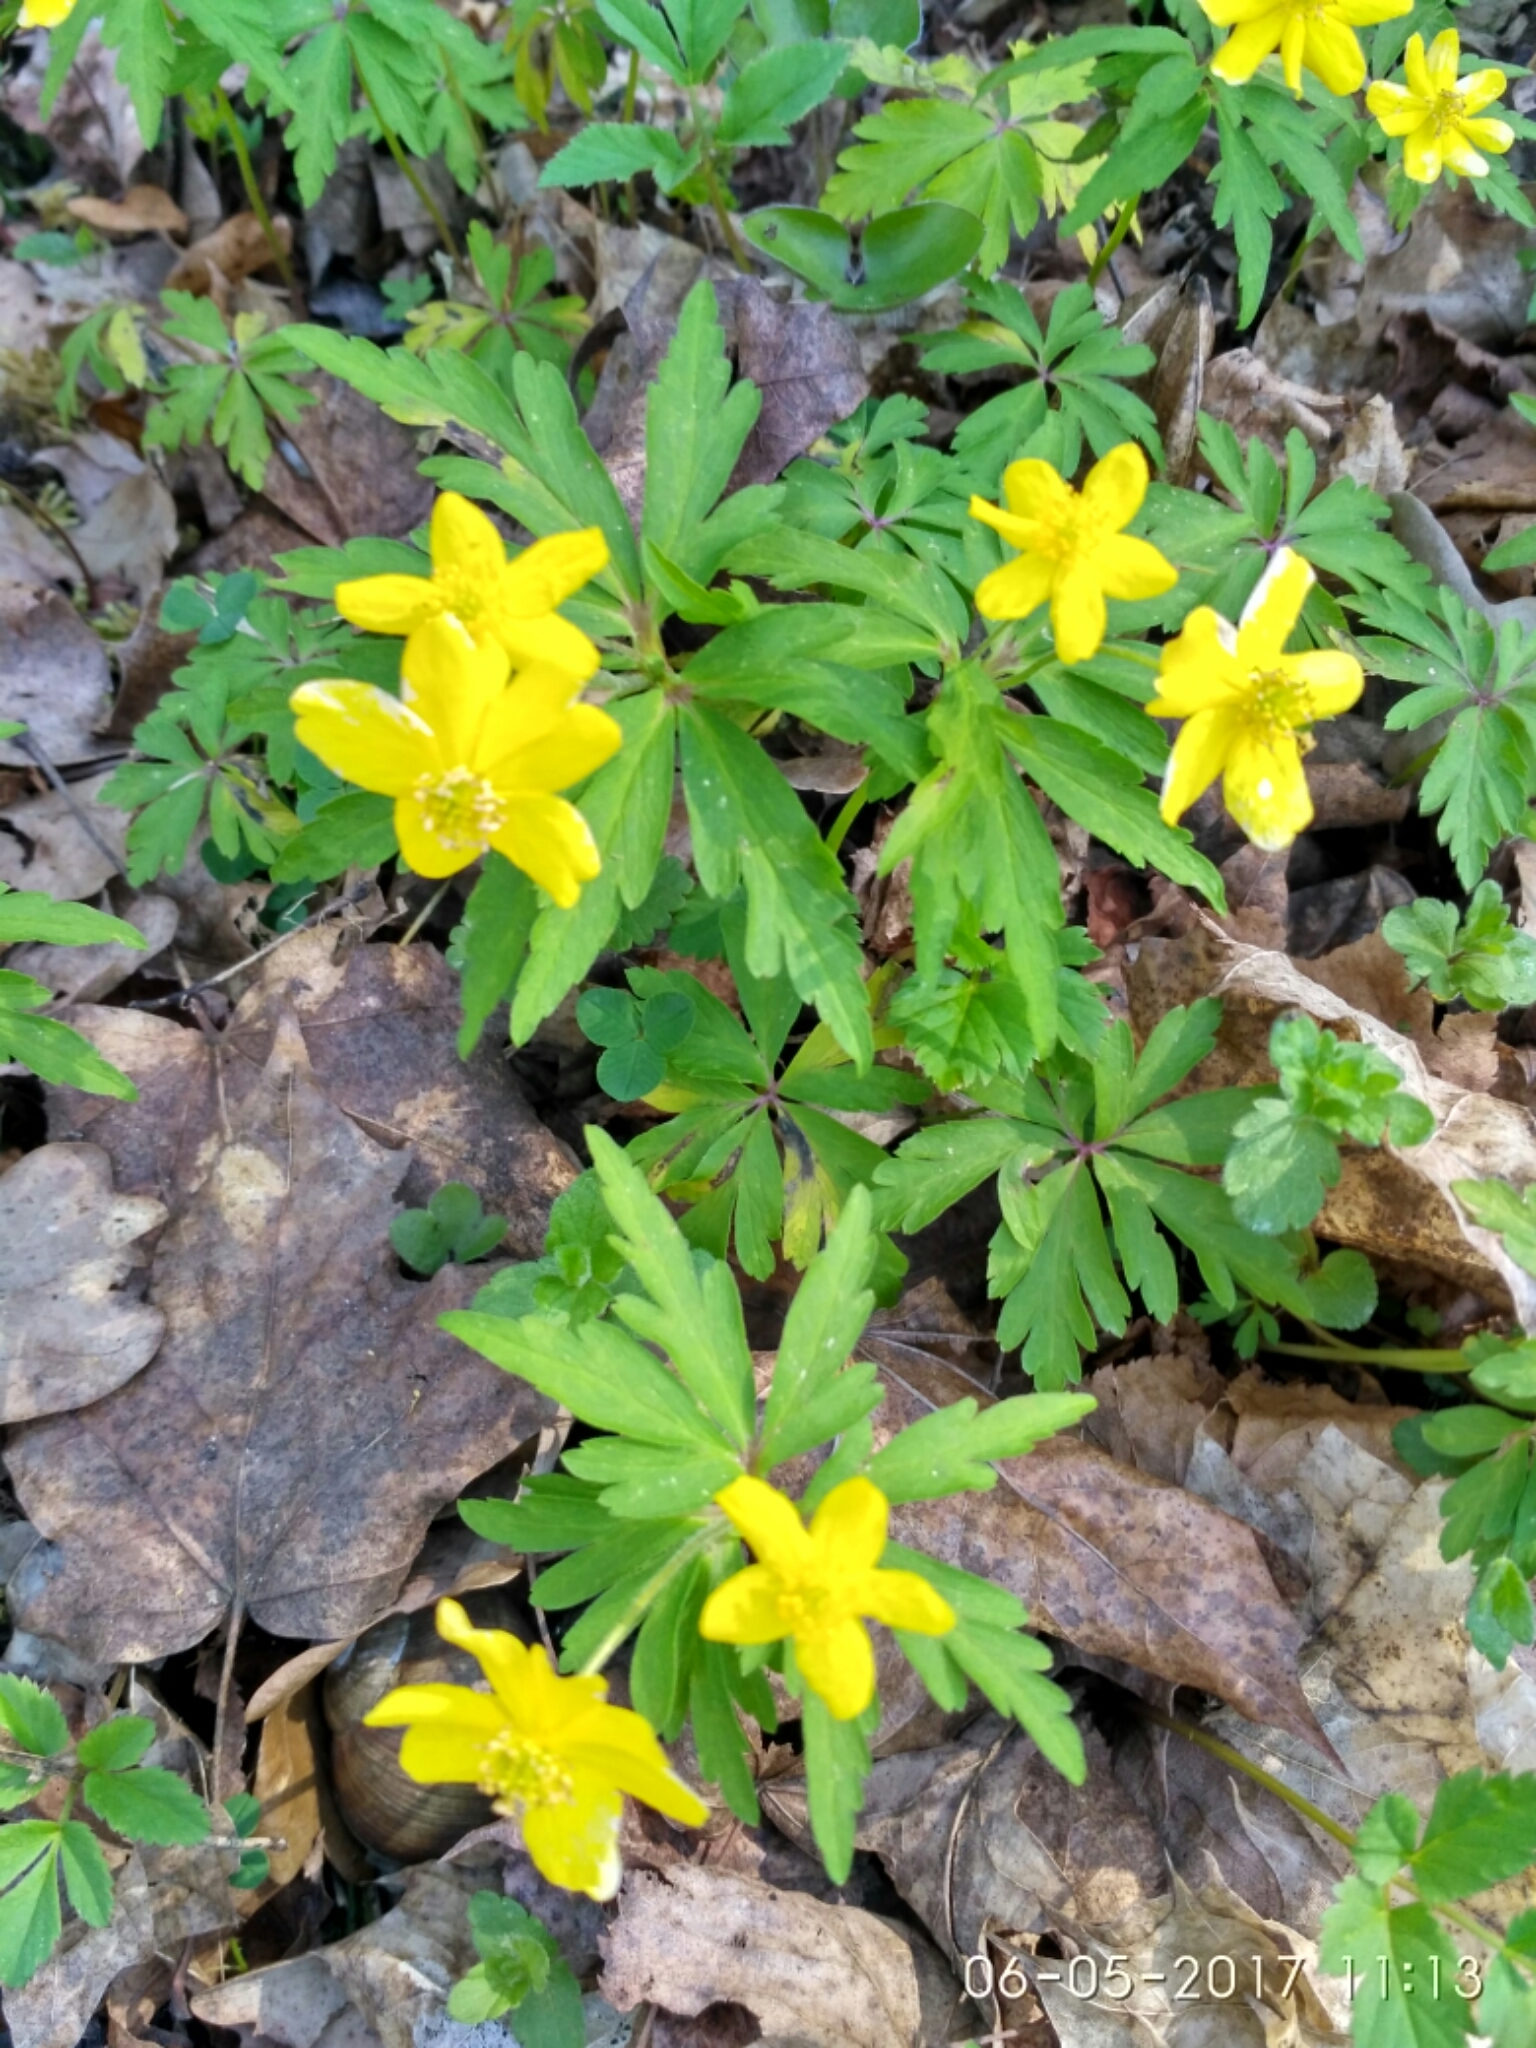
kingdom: Plantae
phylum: Tracheophyta
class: Magnoliopsida
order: Ranunculales
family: Ranunculaceae
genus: Anemone
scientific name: Anemone ranunculoides
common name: Yellow anemone
